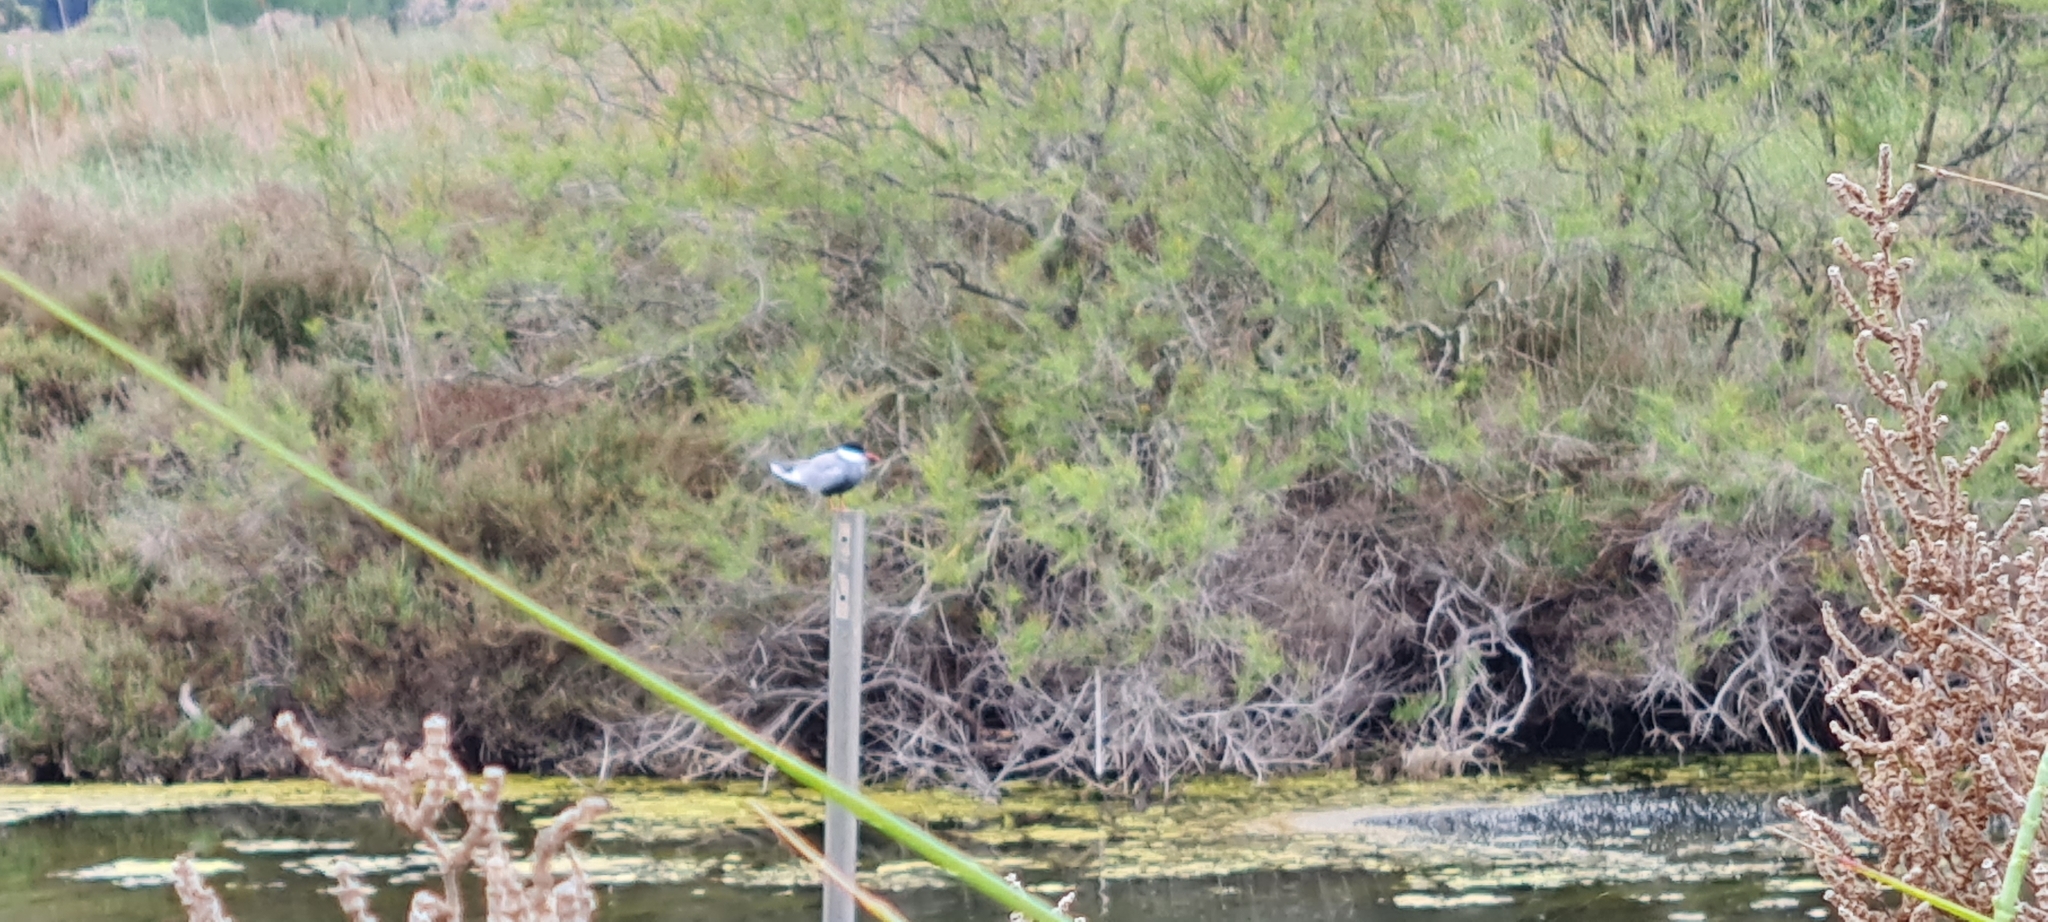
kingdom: Animalia
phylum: Chordata
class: Aves
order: Charadriiformes
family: Laridae
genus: Chlidonias
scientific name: Chlidonias hybrida
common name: Whiskered tern
